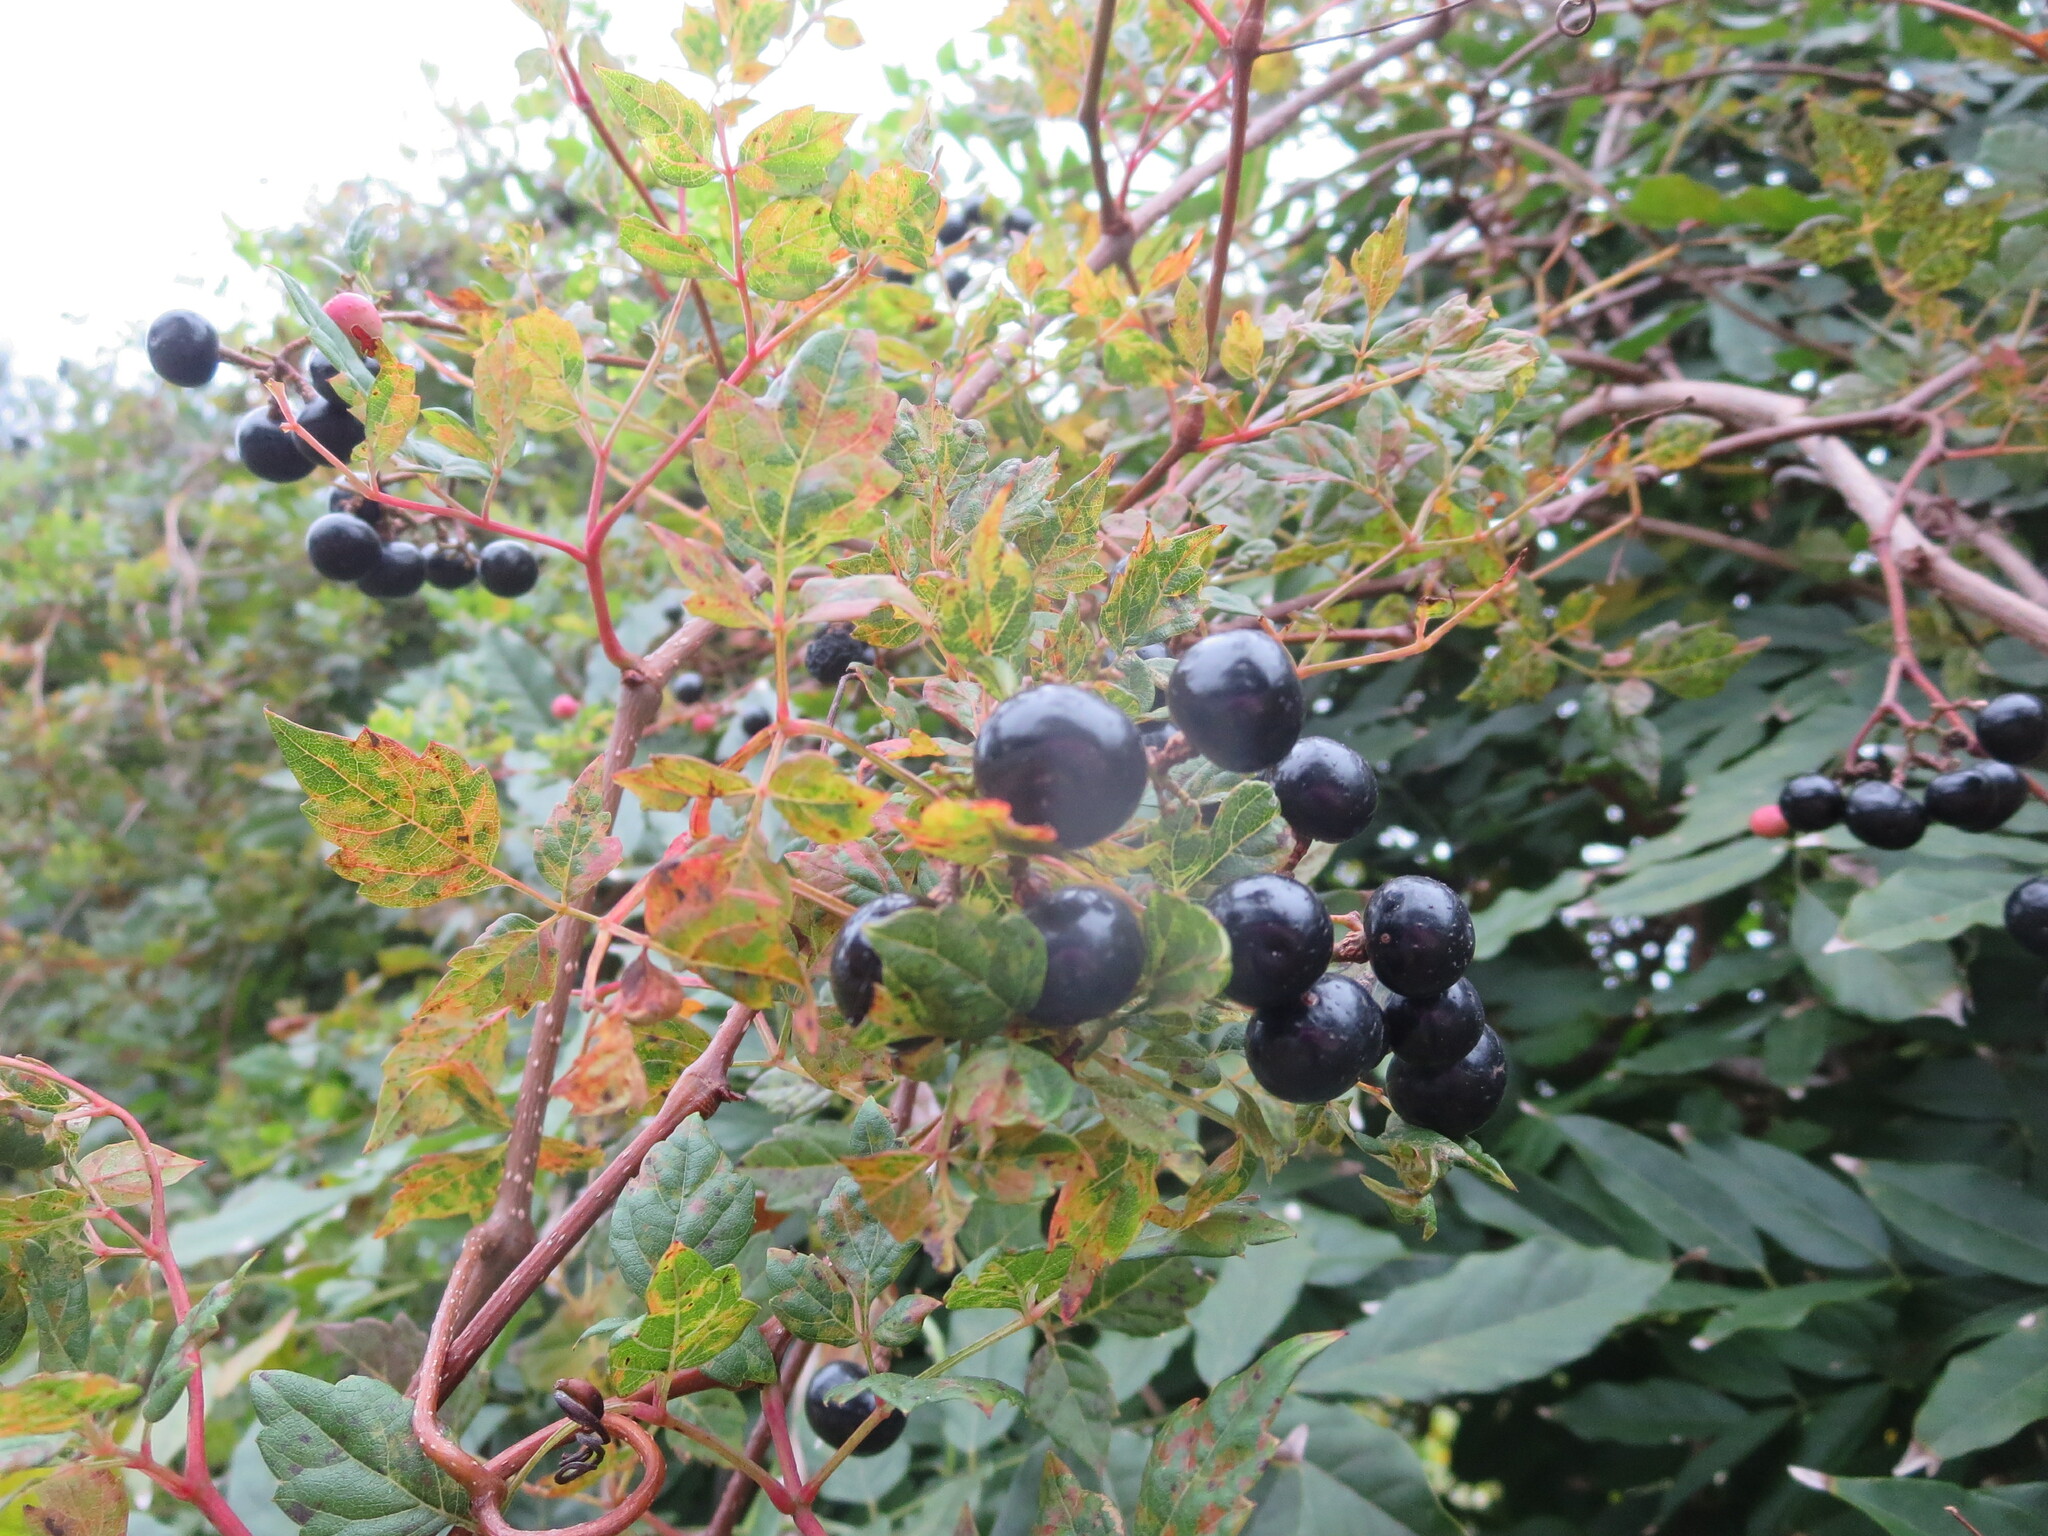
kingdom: Plantae
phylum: Tracheophyta
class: Magnoliopsida
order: Vitales
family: Vitaceae
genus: Nekemias
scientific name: Nekemias arborea
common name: Peppervine
